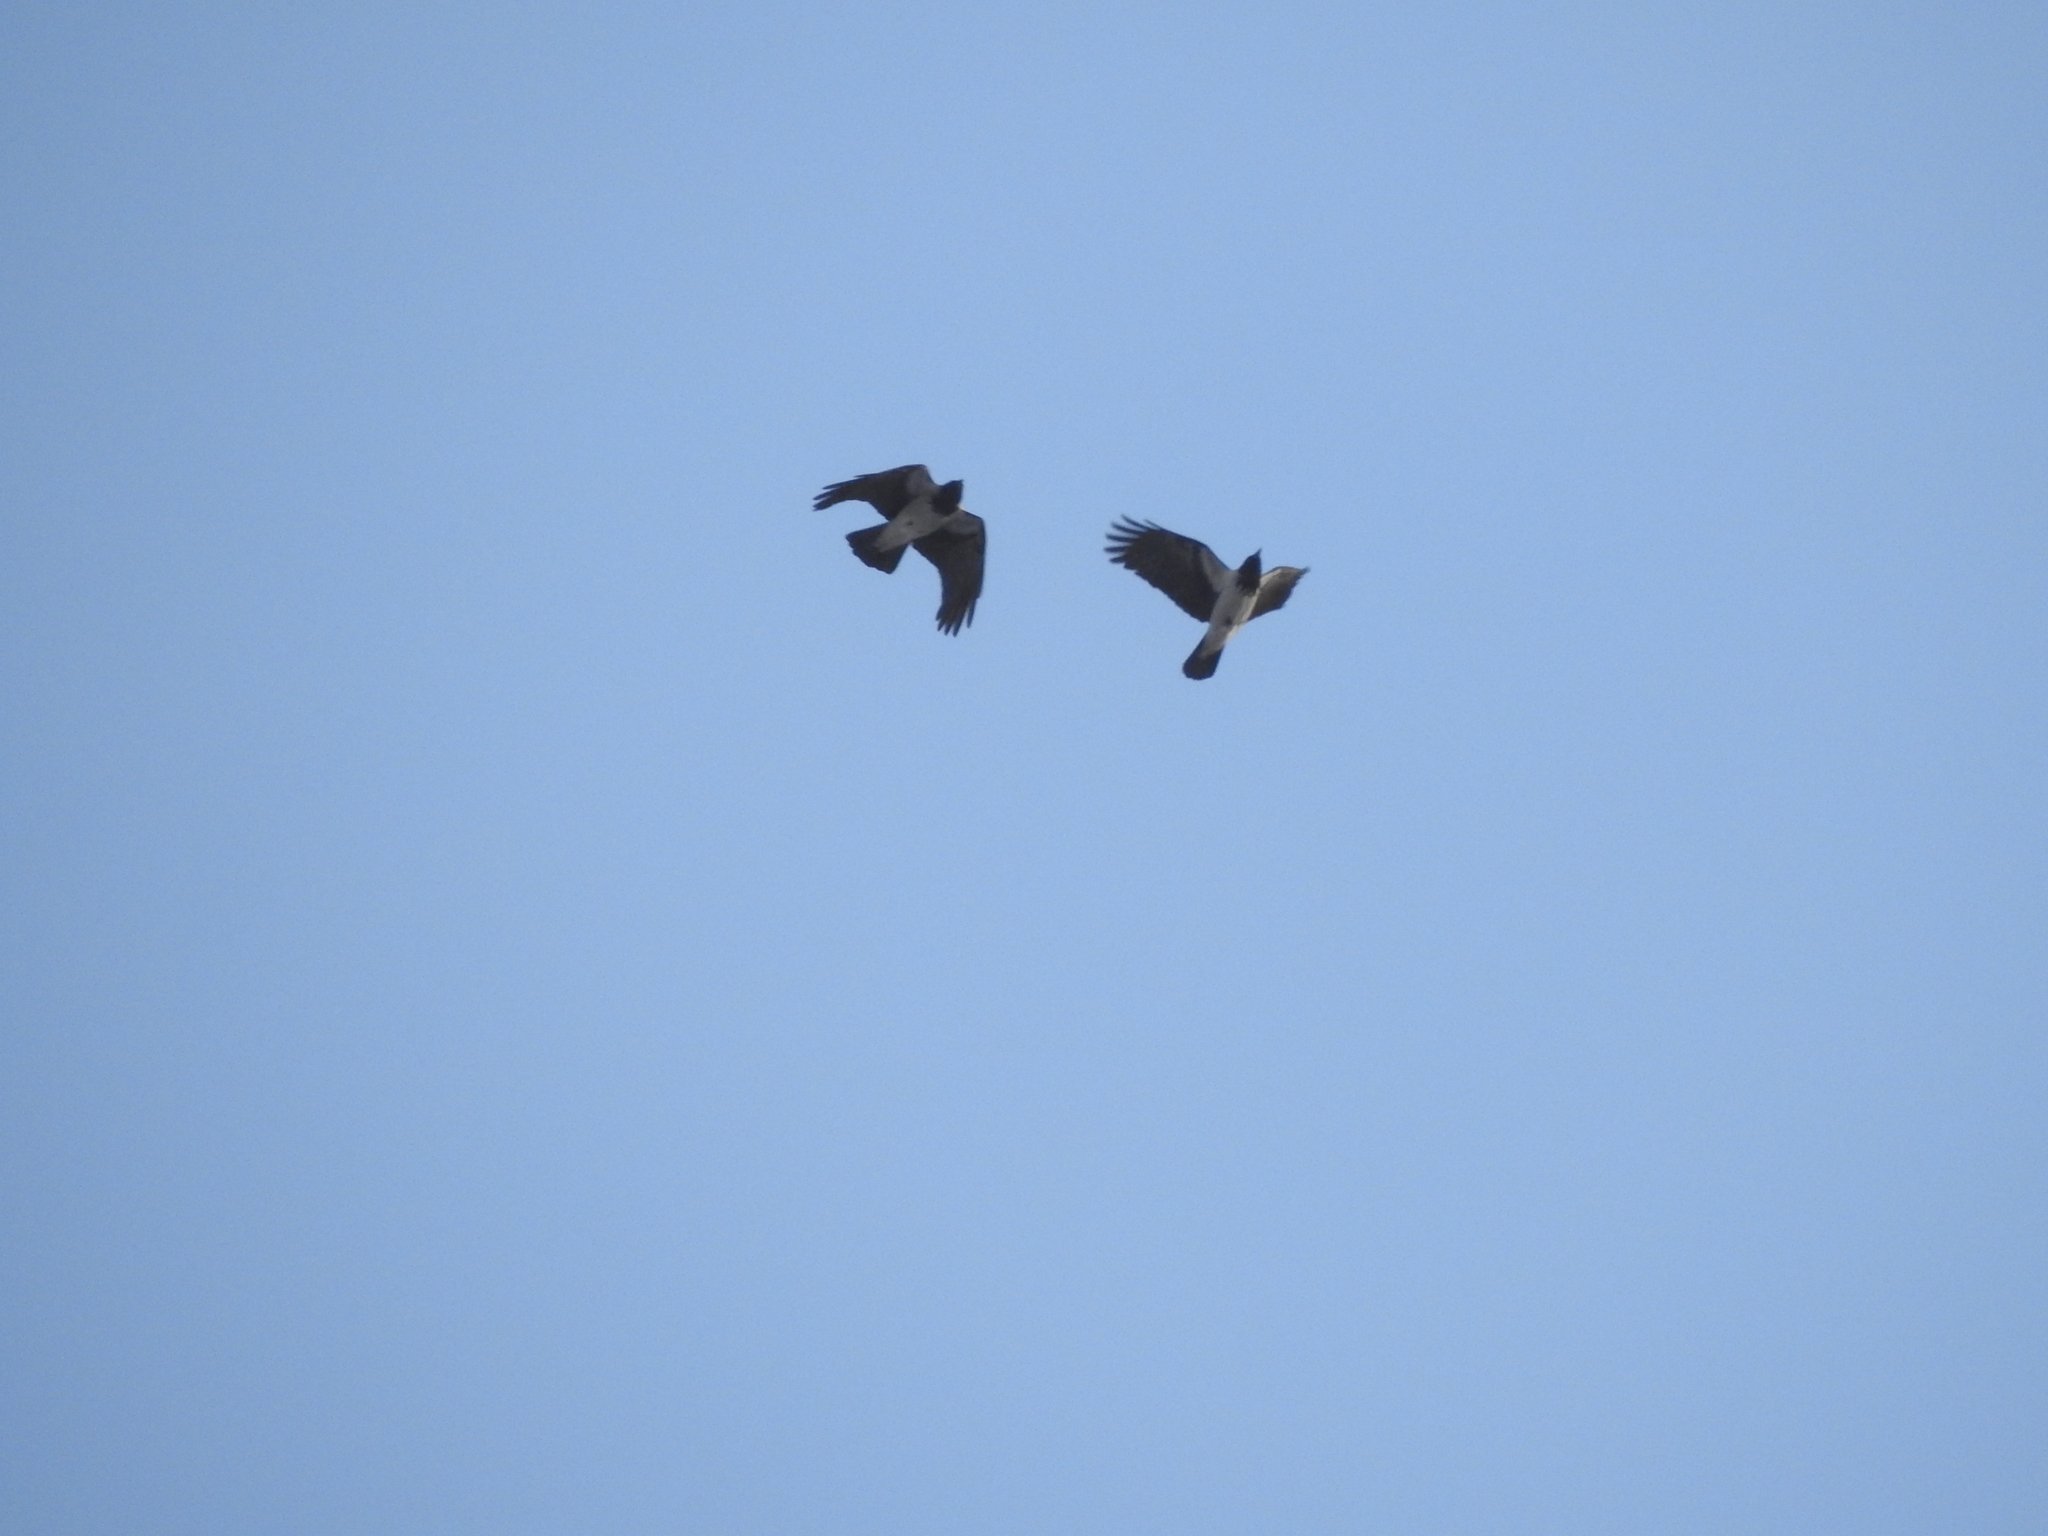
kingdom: Animalia
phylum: Chordata
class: Aves
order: Passeriformes
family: Corvidae
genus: Corvus
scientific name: Corvus cornix
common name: Hooded crow
